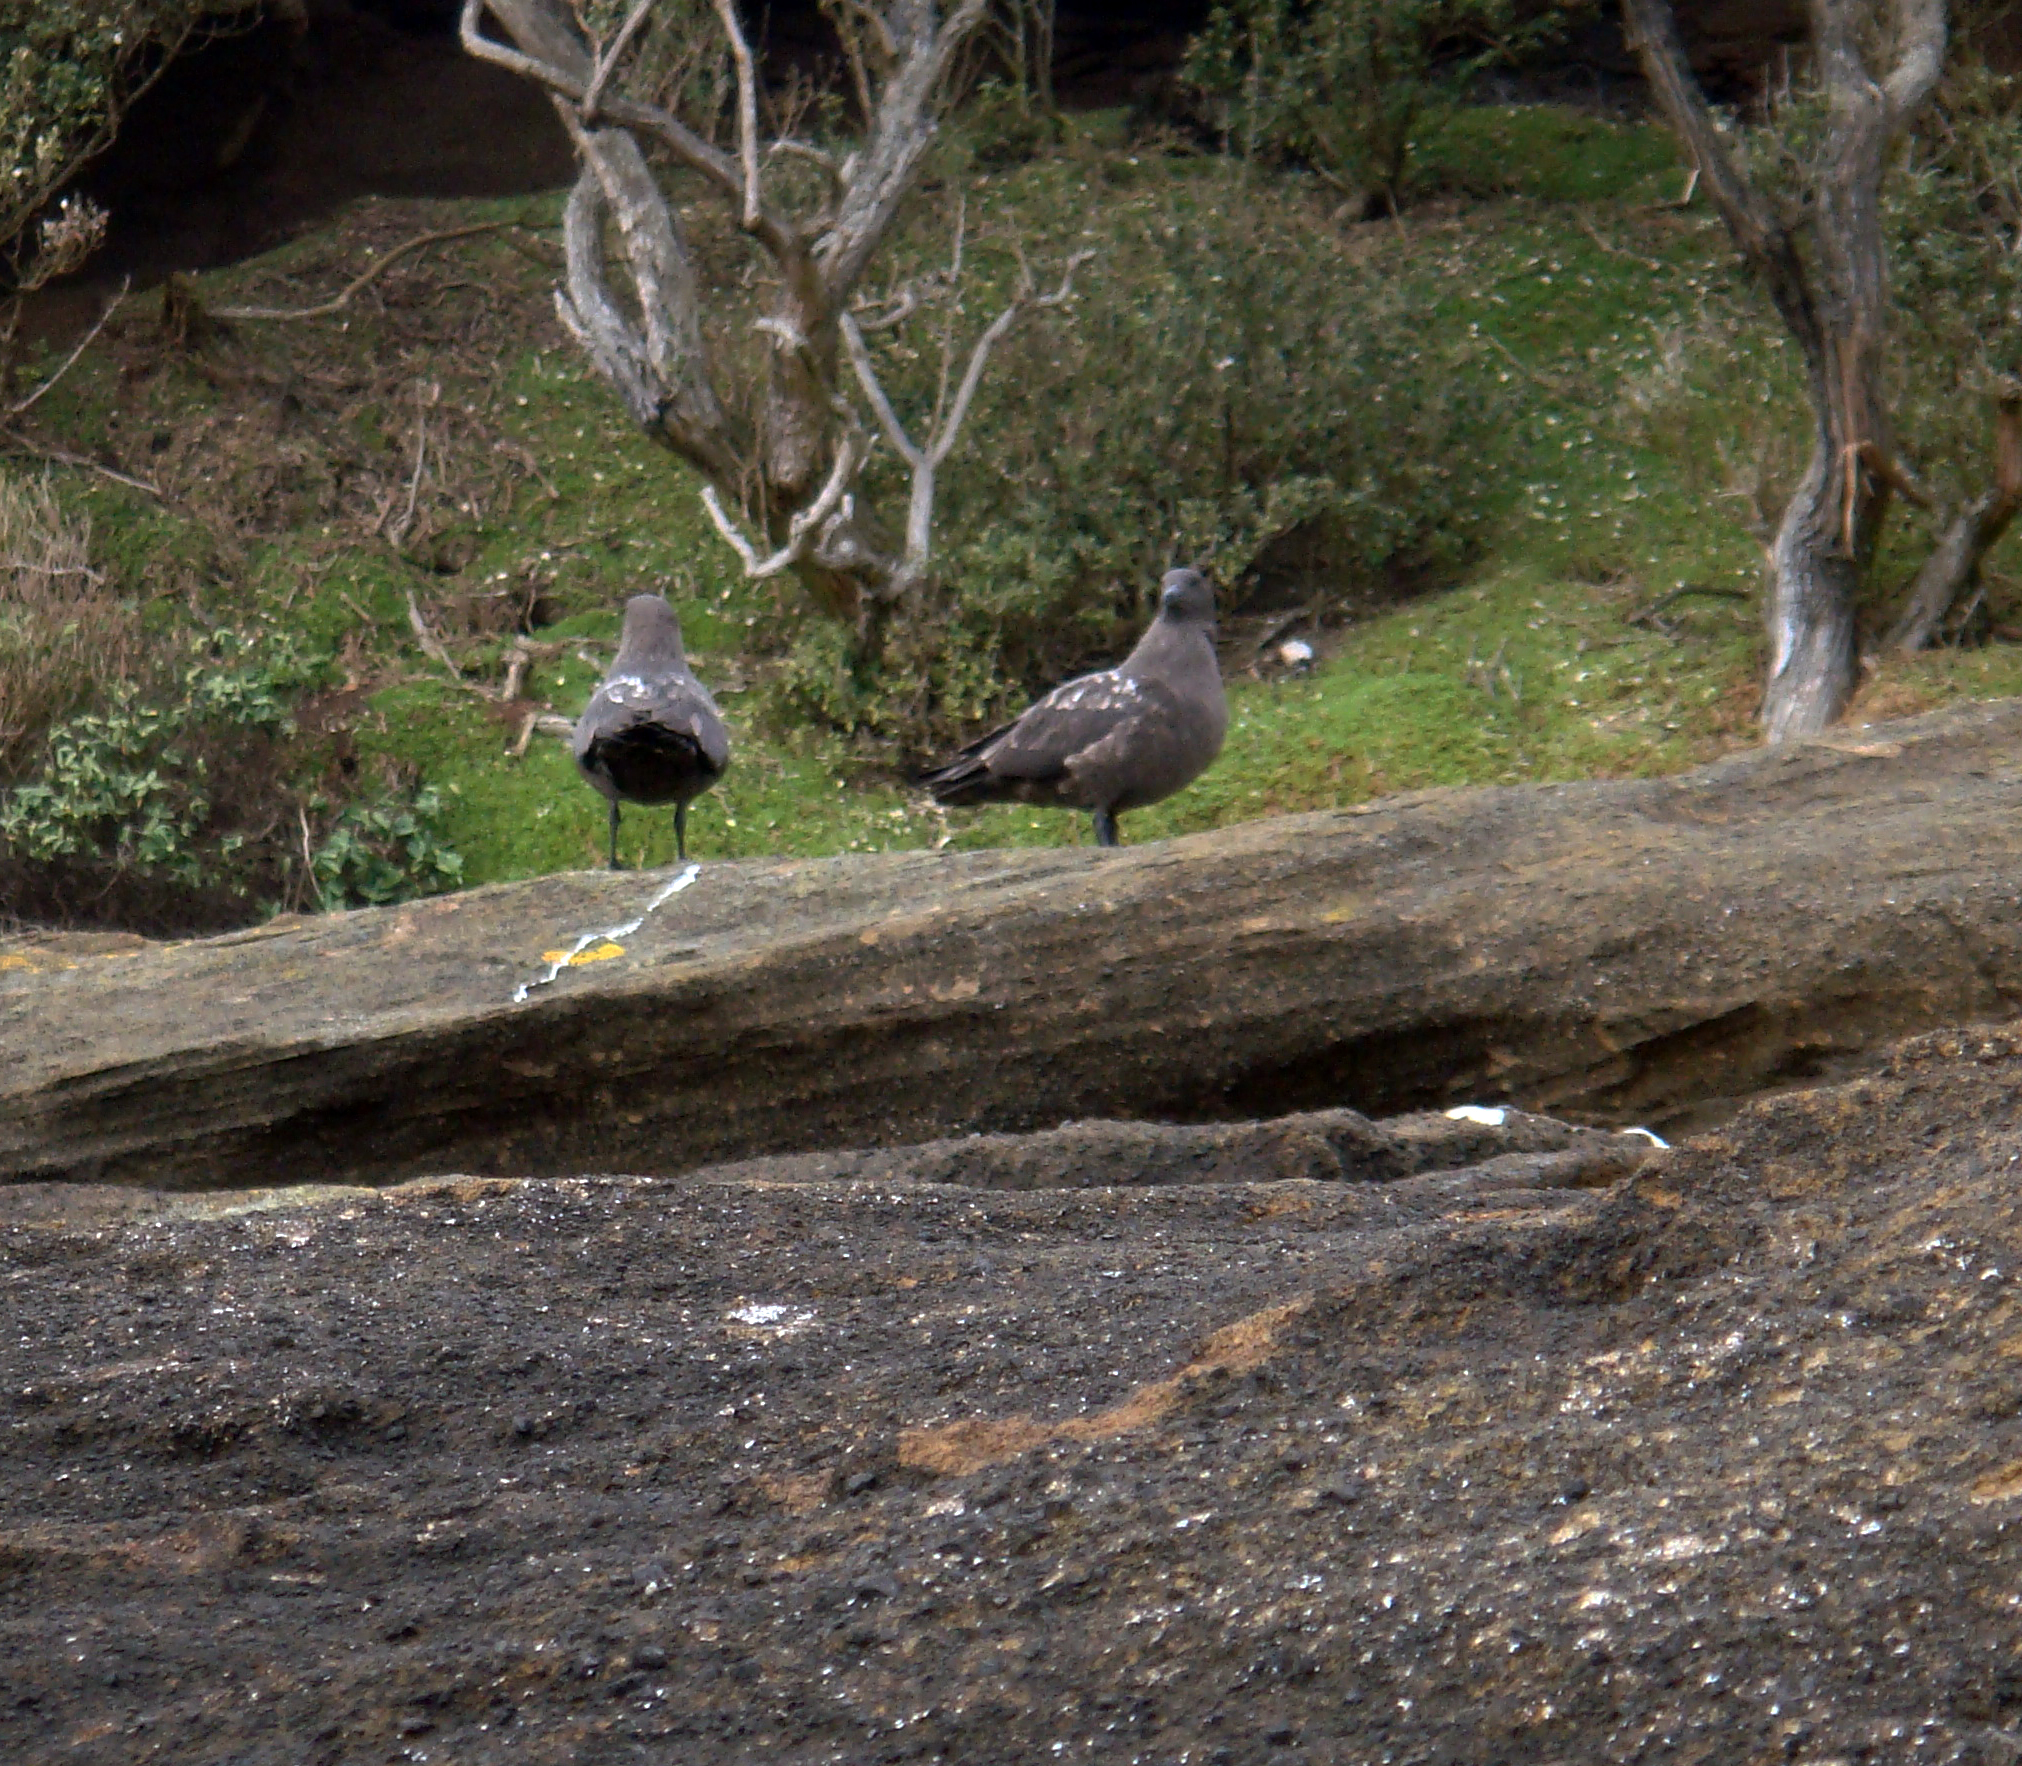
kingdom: Animalia
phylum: Chordata
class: Aves
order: Charadriiformes
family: Stercorariidae
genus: Stercorarius
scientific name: Stercorarius antarcticus
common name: Brown skua
